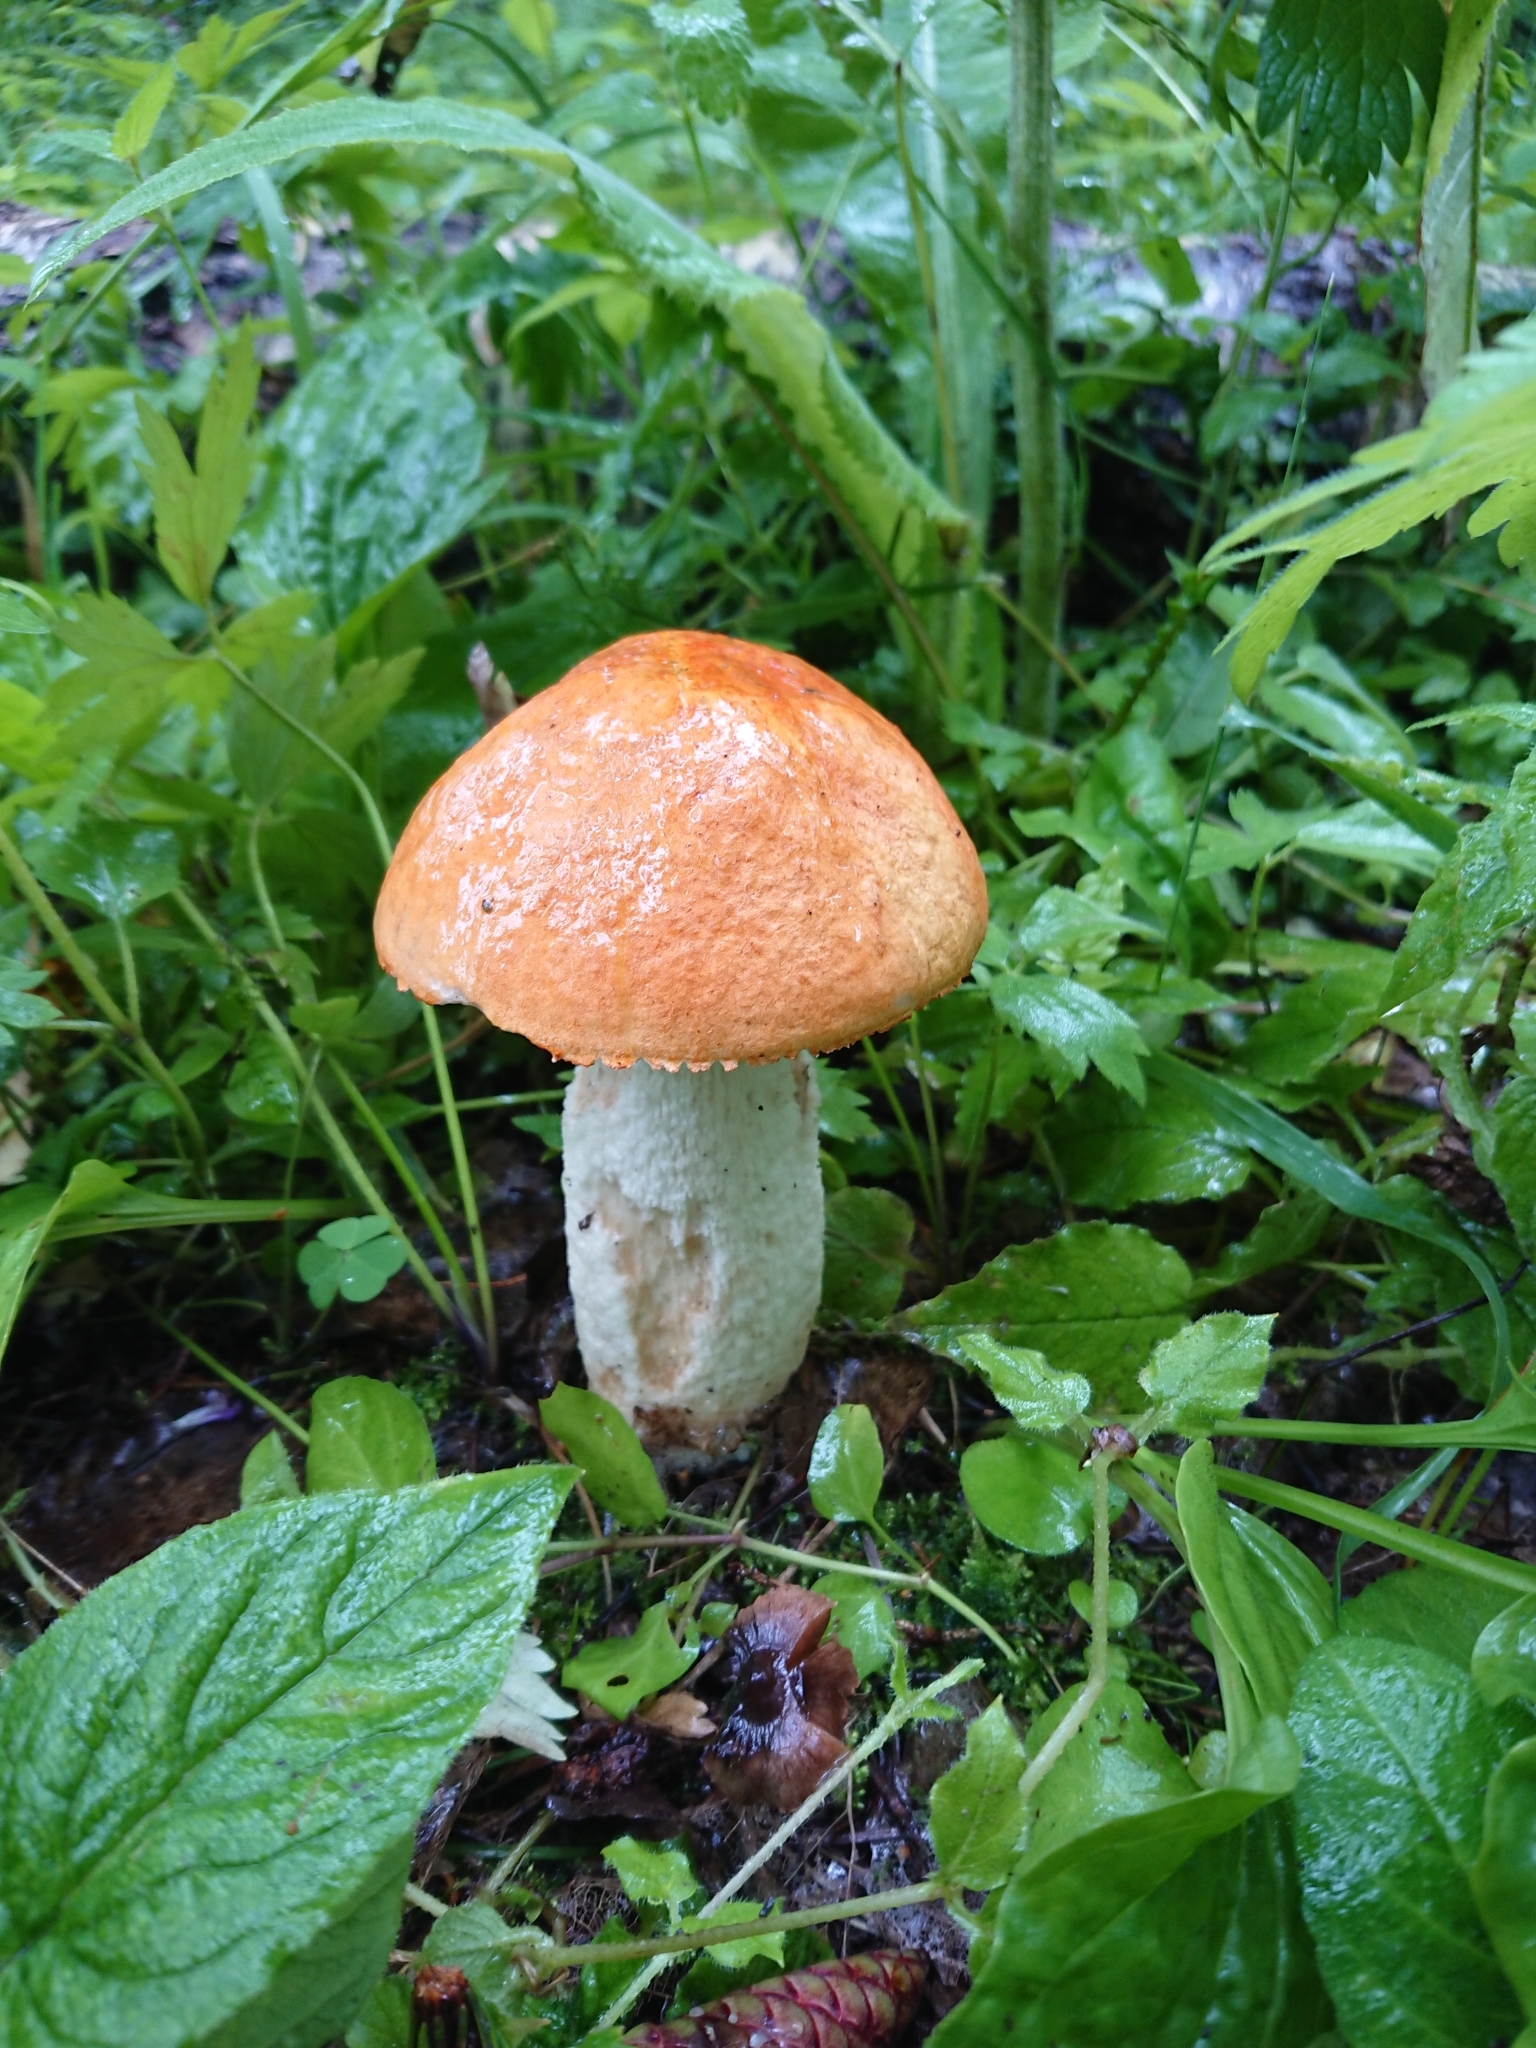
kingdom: Fungi
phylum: Basidiomycota
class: Agaricomycetes
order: Boletales
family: Boletaceae
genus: Leccinum
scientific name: Leccinum albostipitatum
